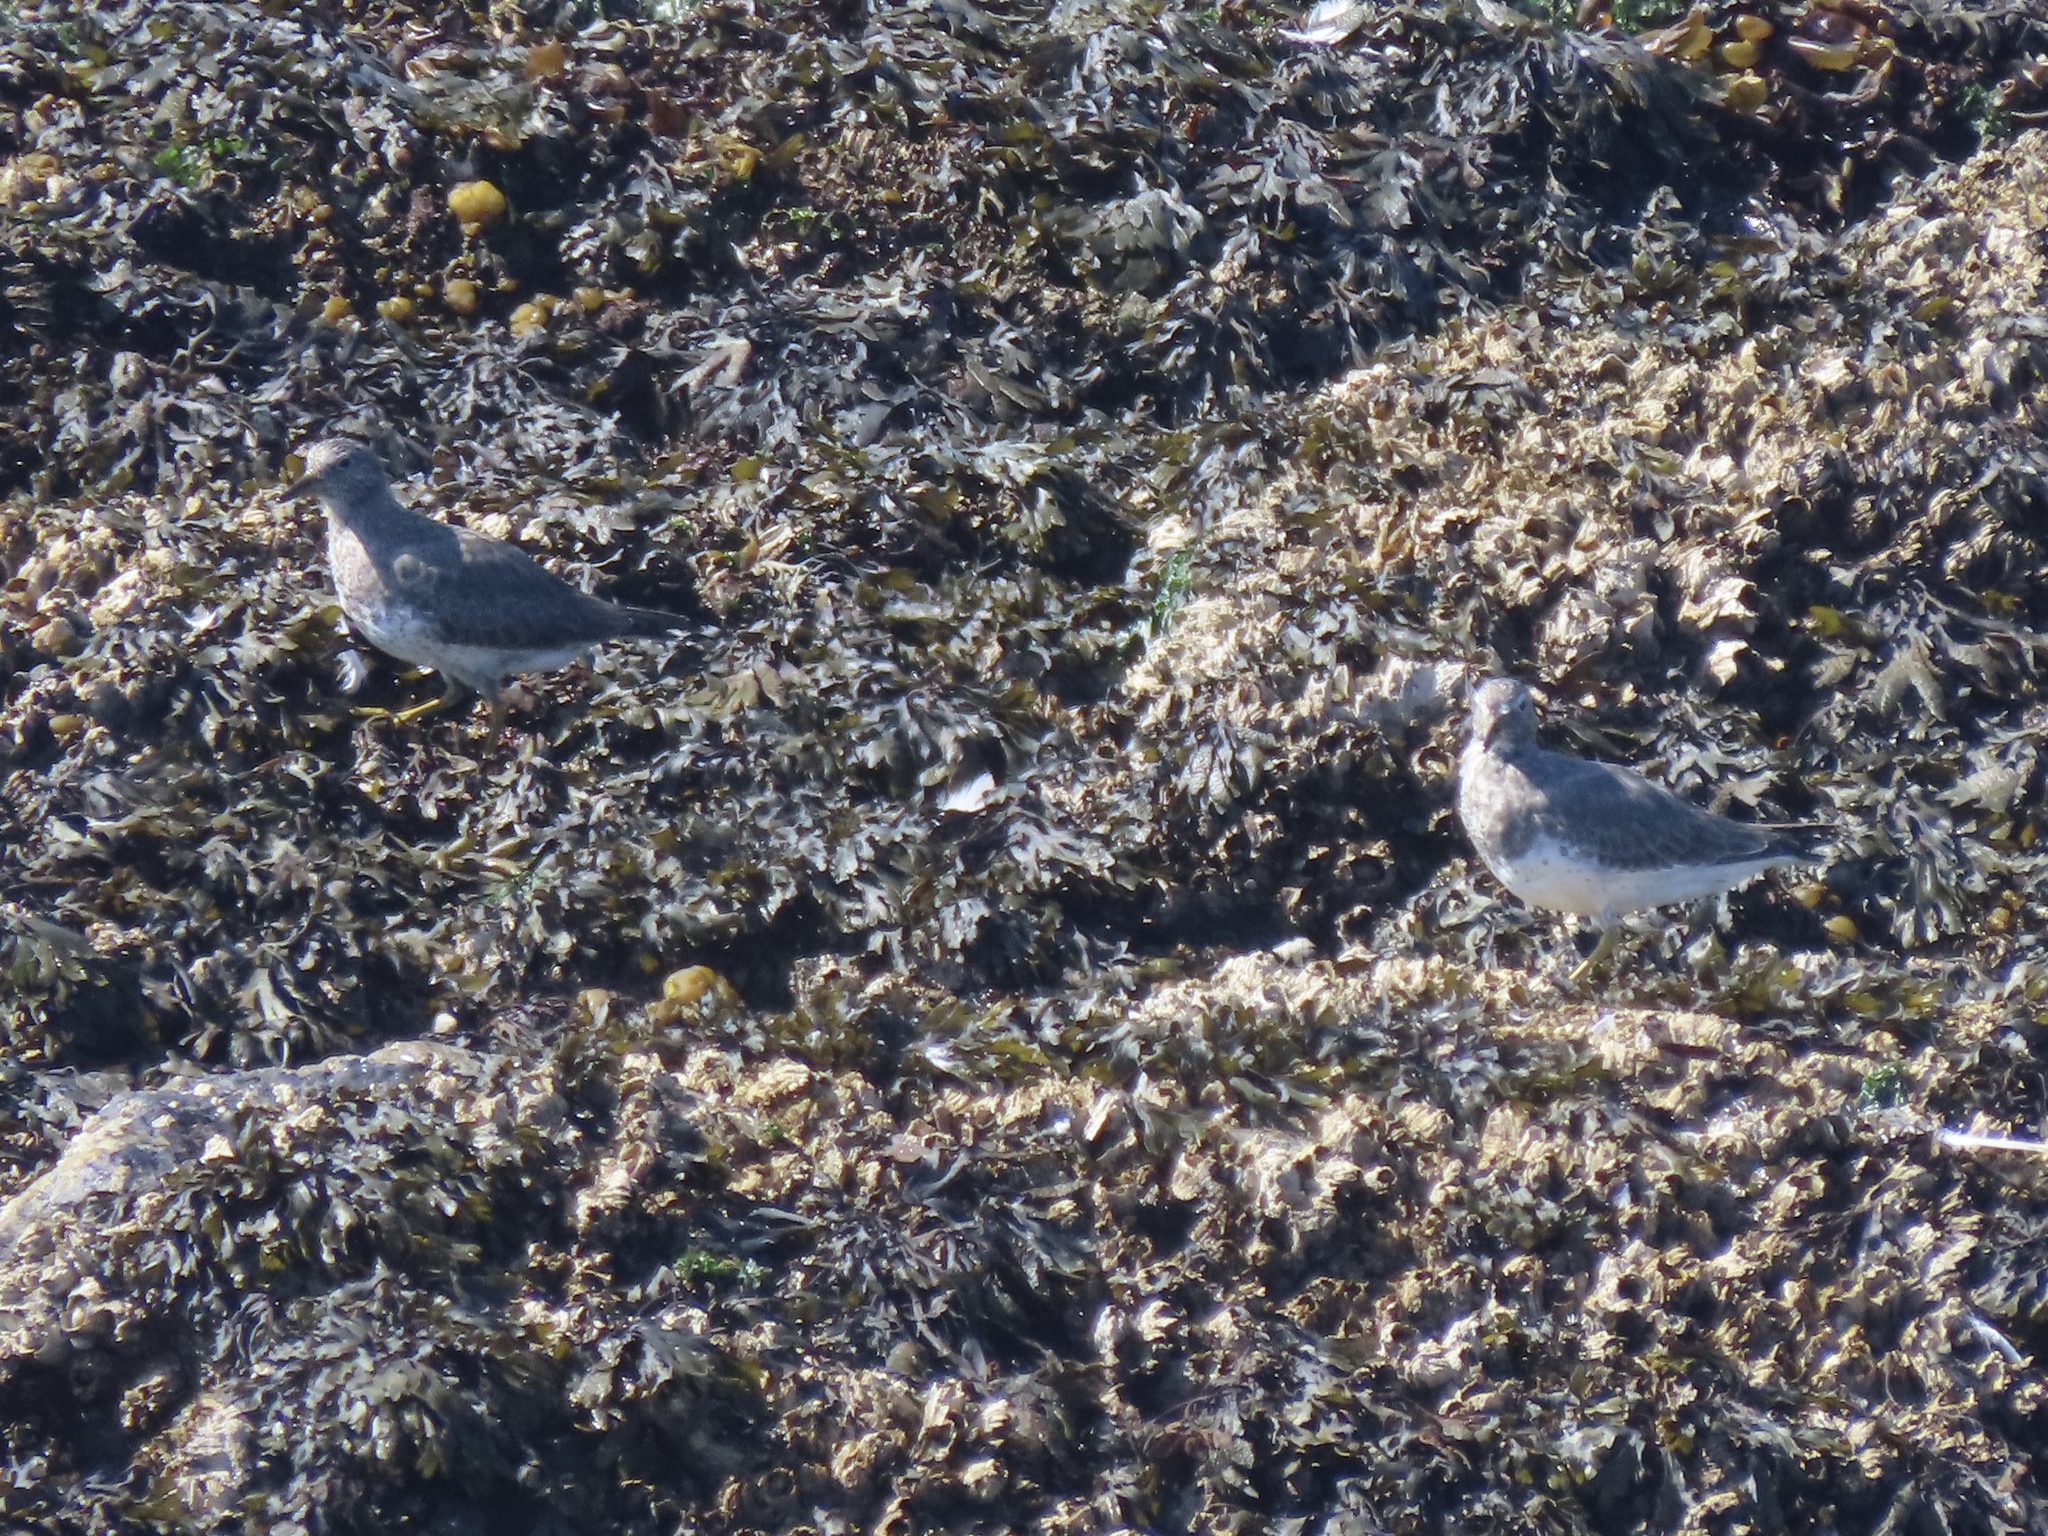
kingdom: Animalia
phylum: Chordata
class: Aves
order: Charadriiformes
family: Scolopacidae
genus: Calidris
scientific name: Calidris virgata
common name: Surfbird
